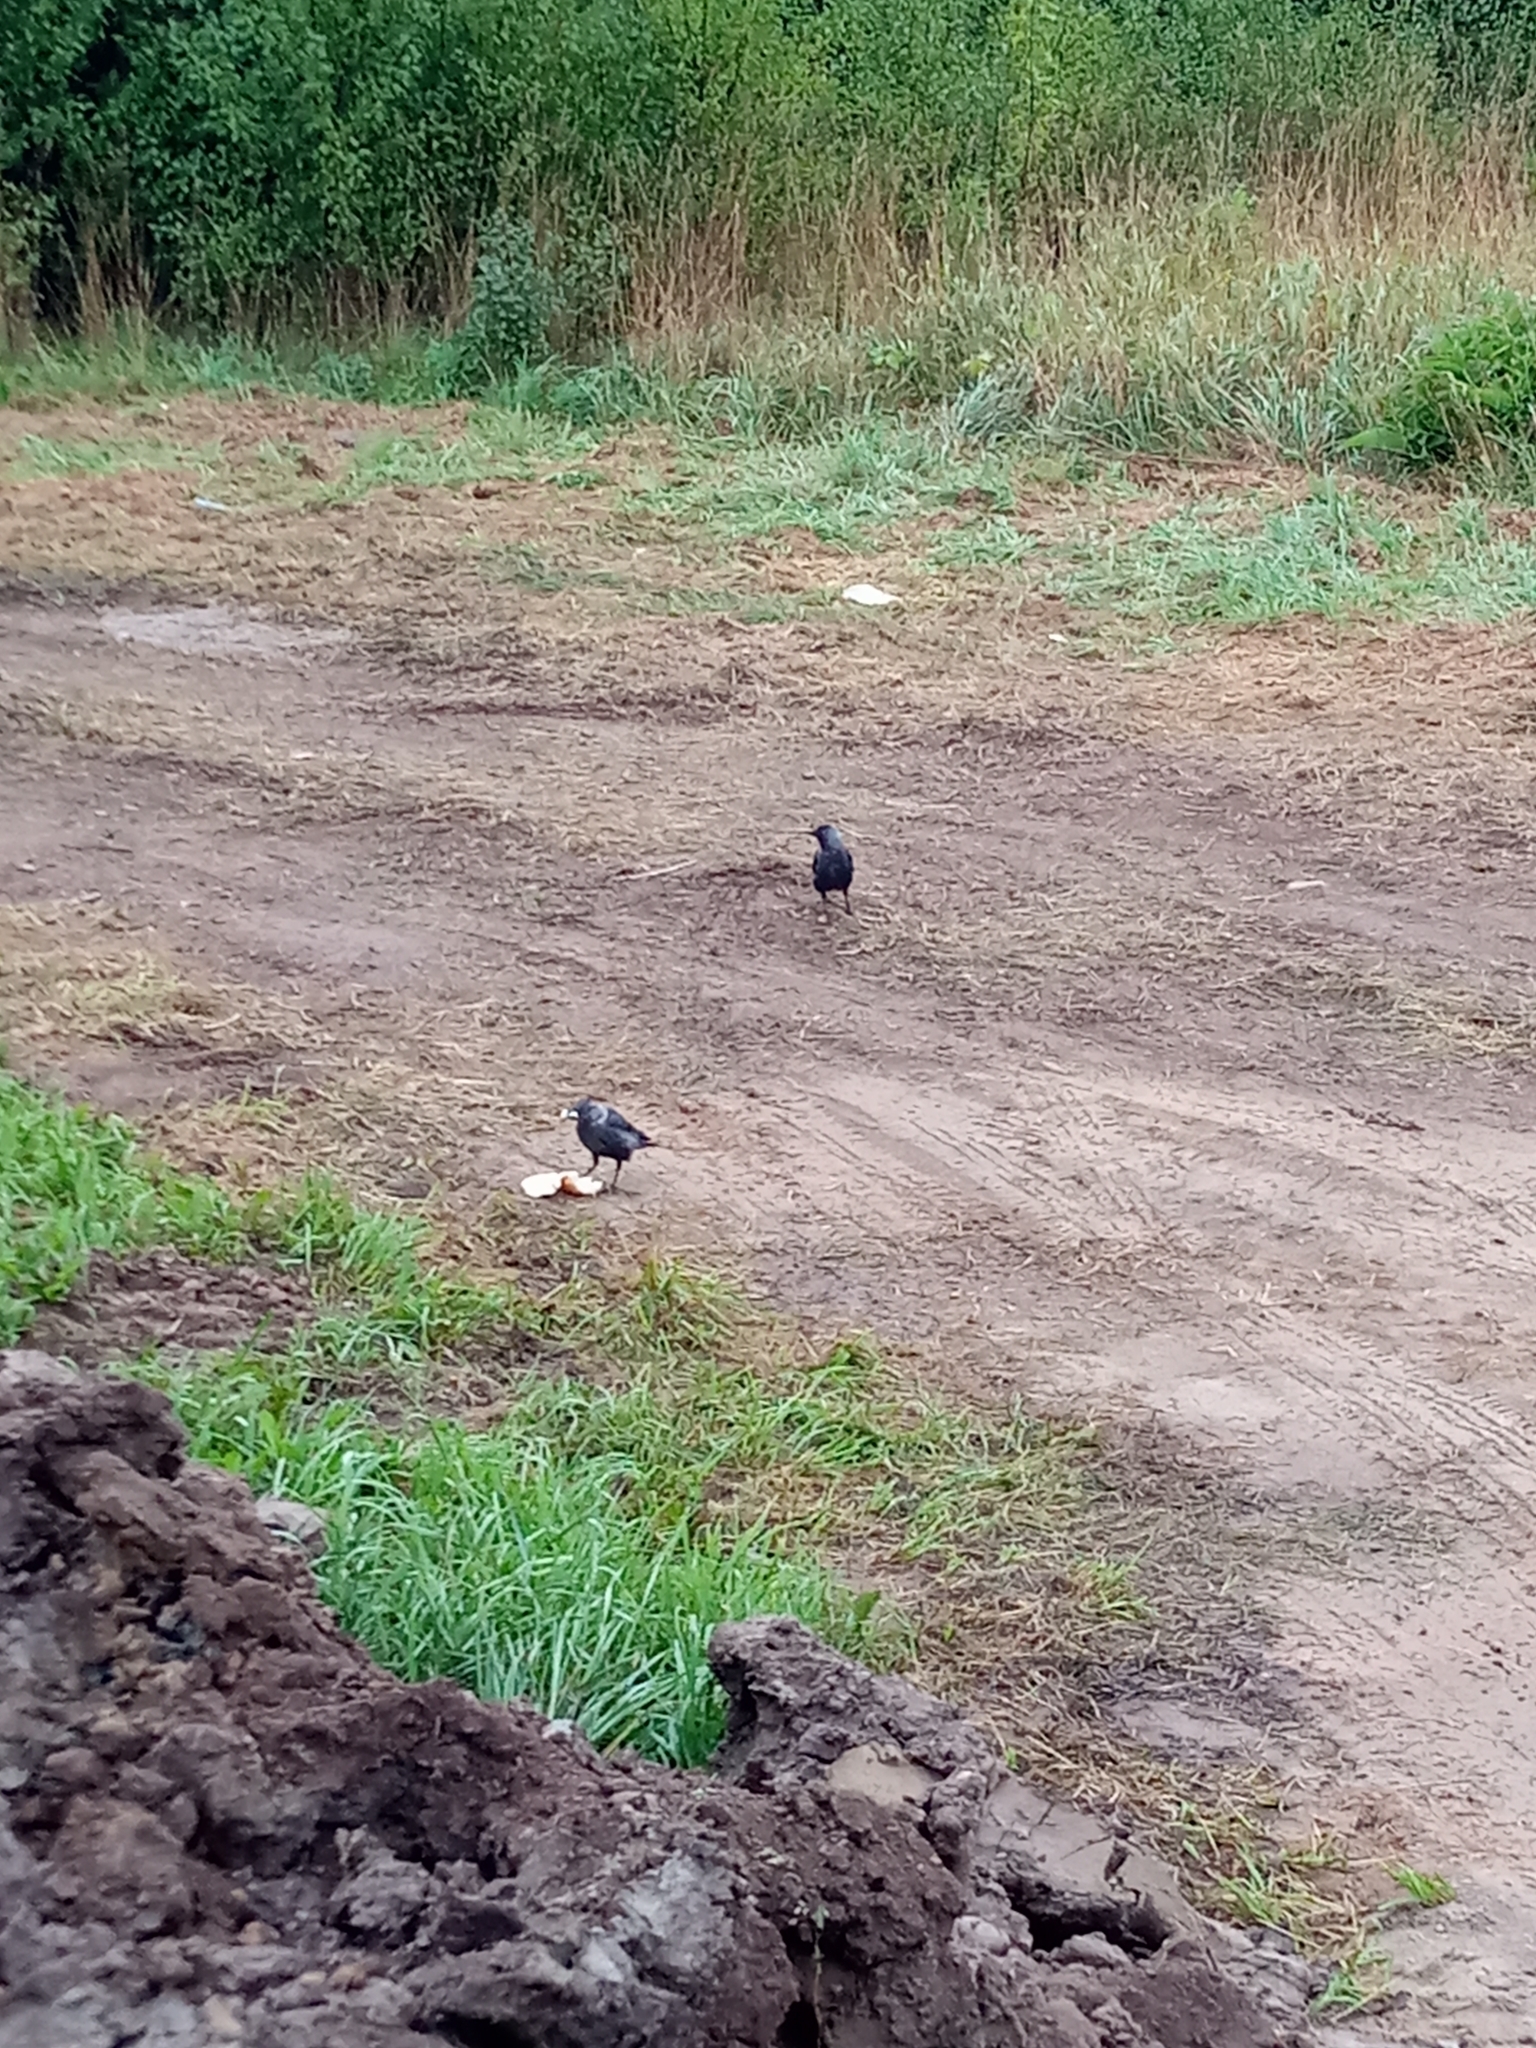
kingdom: Animalia
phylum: Chordata
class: Aves
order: Passeriformes
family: Corvidae
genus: Coloeus
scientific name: Coloeus monedula
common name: Western jackdaw
